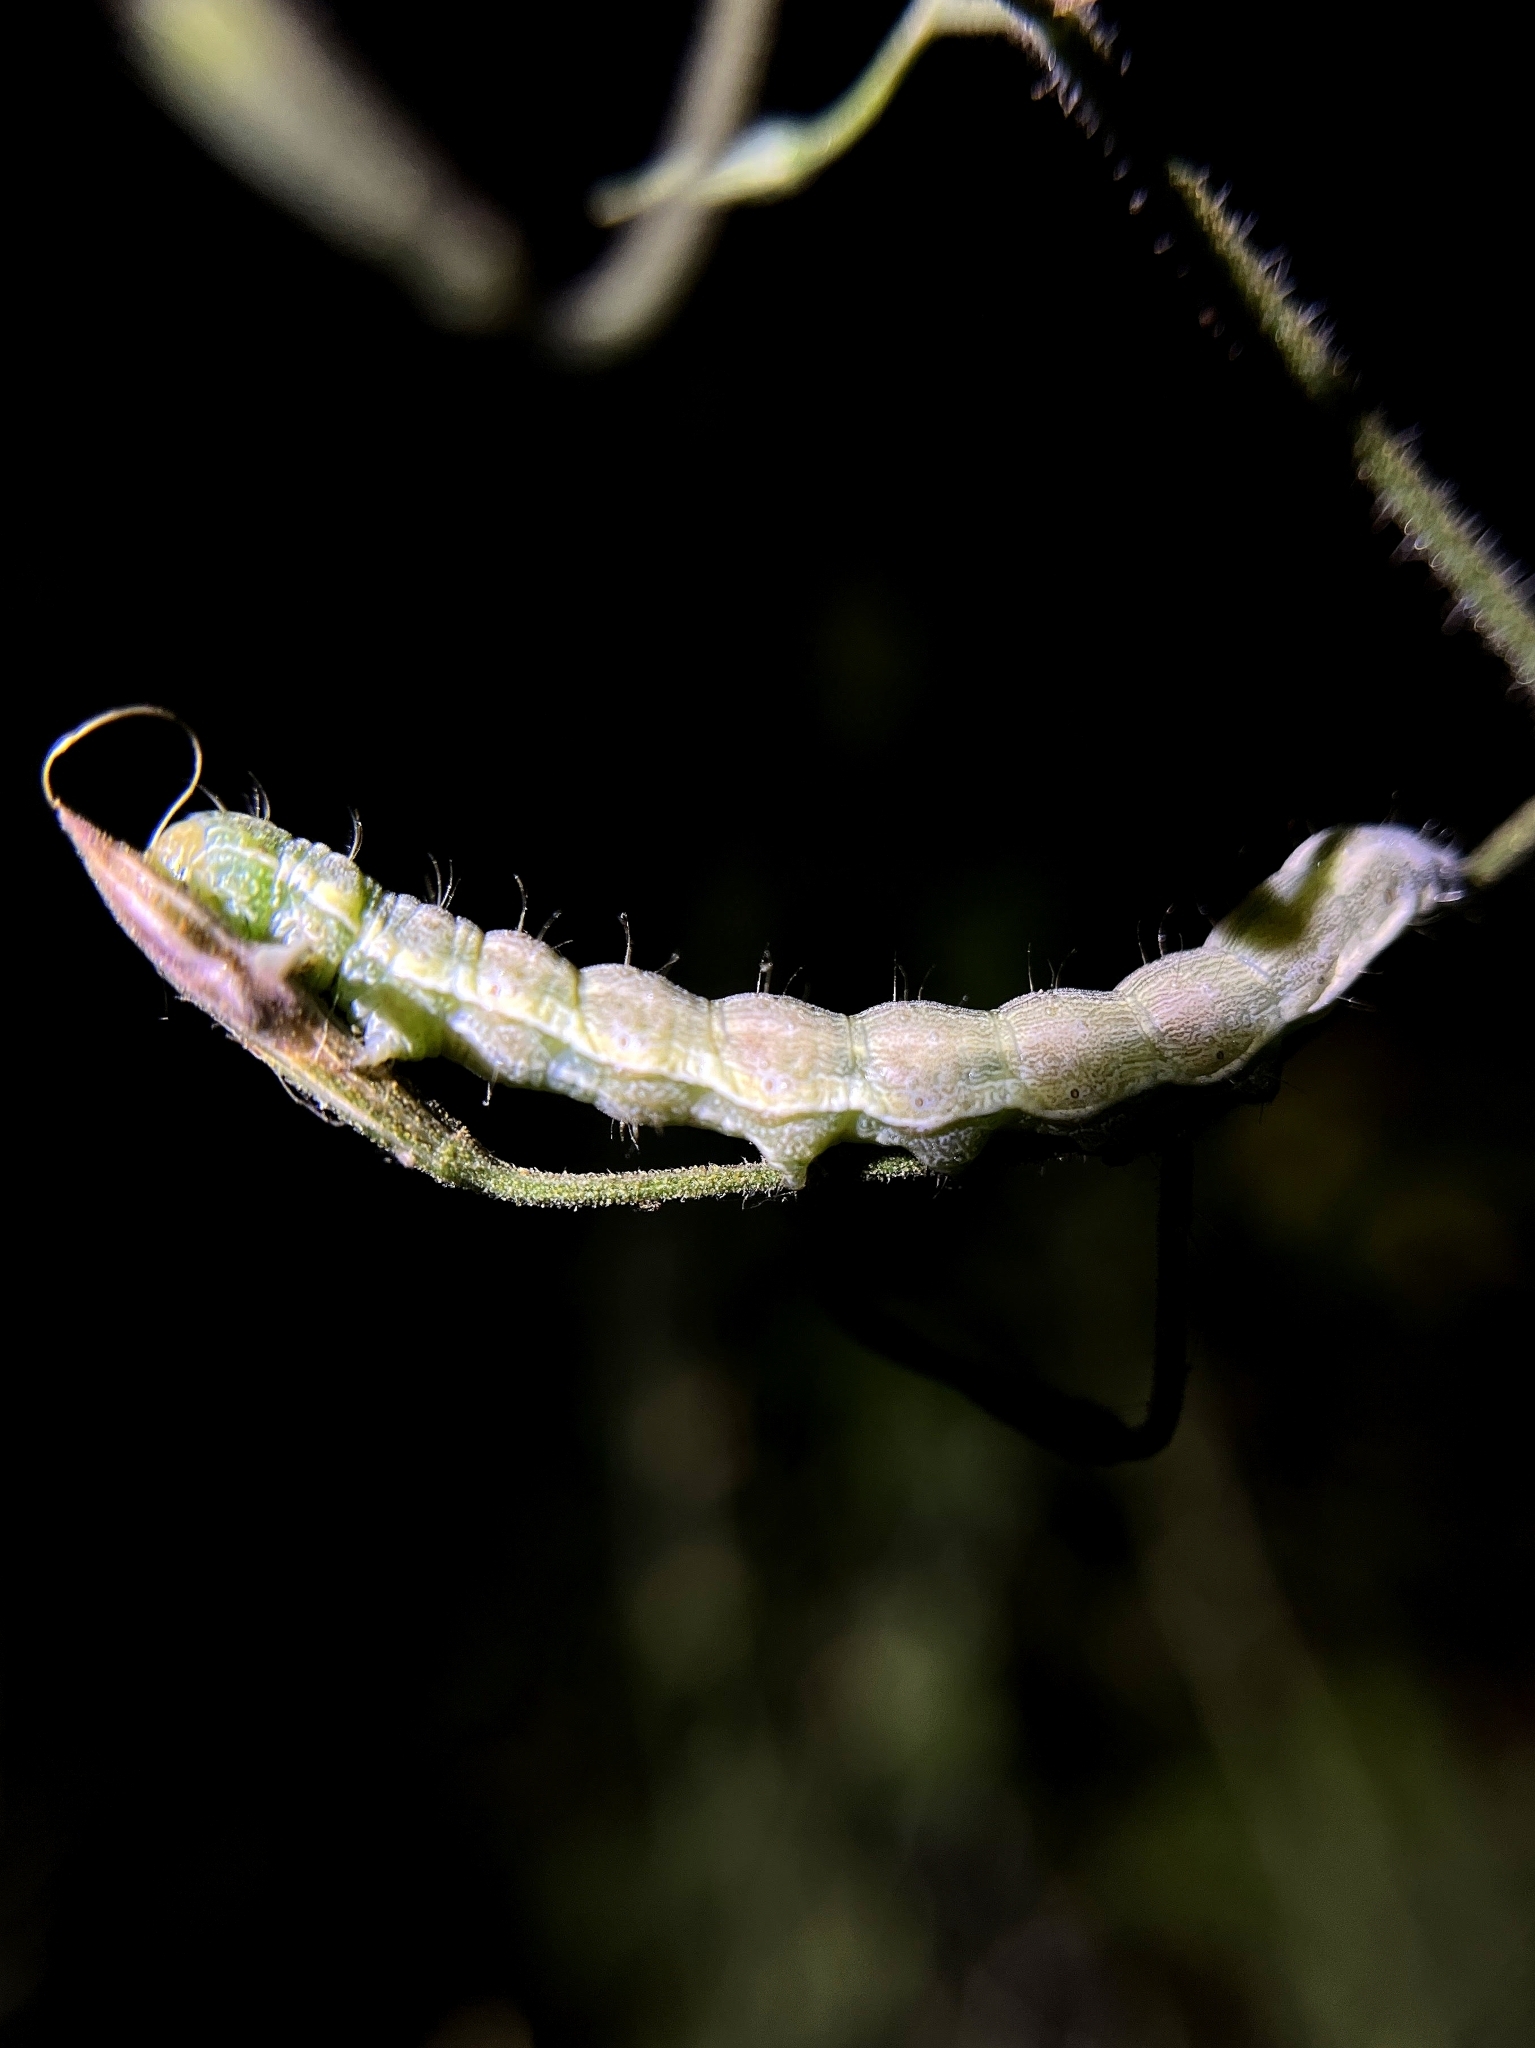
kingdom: Animalia
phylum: Arthropoda
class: Insecta
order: Lepidoptera
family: Noctuidae
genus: Helicoverpa
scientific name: Helicoverpa armigera
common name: Cotton bollworm
